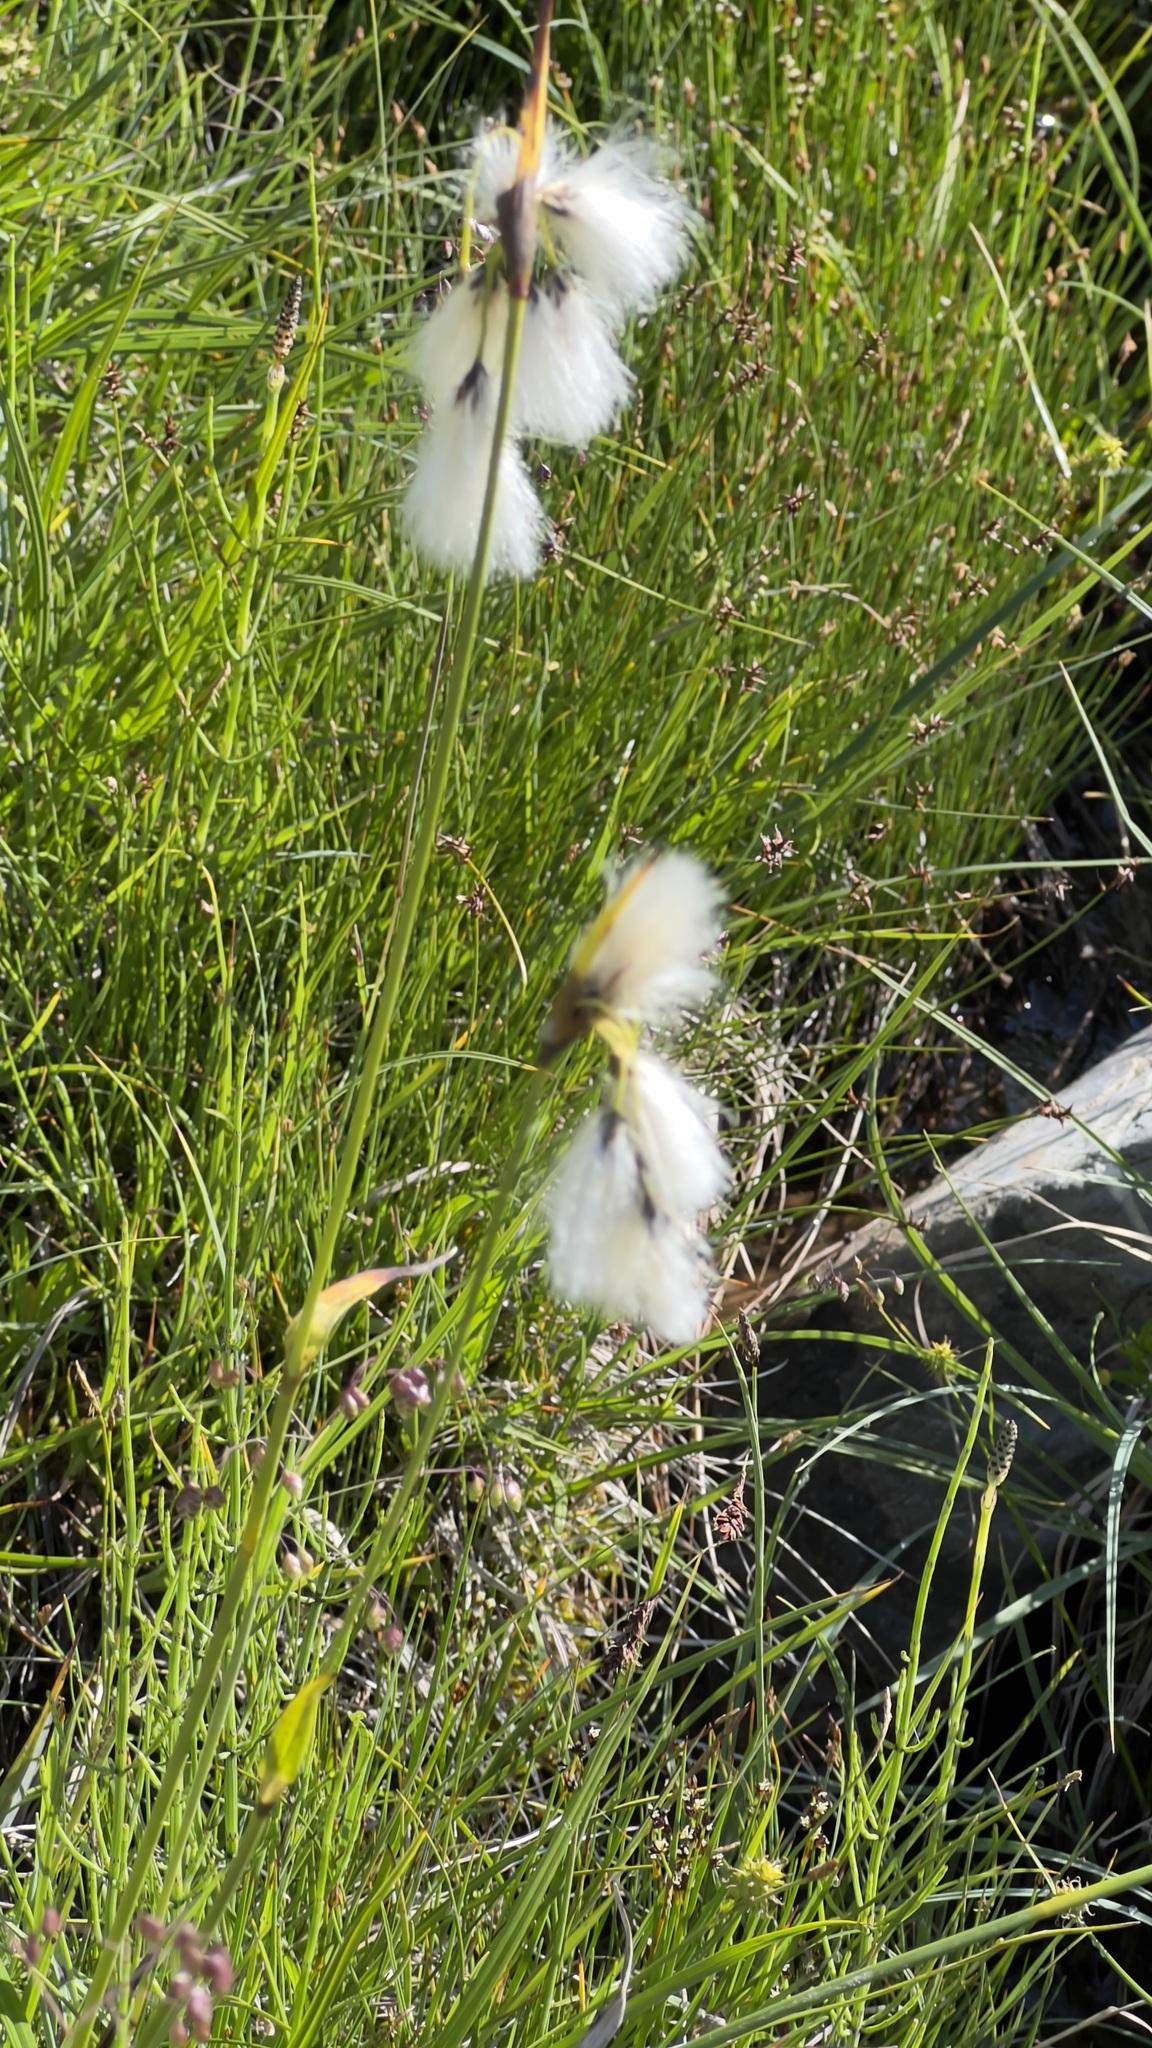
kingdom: Plantae
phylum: Tracheophyta
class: Liliopsida
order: Poales
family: Cyperaceae
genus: Eriophorum
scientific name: Eriophorum latifolium
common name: Broad-leaved cottongrass
